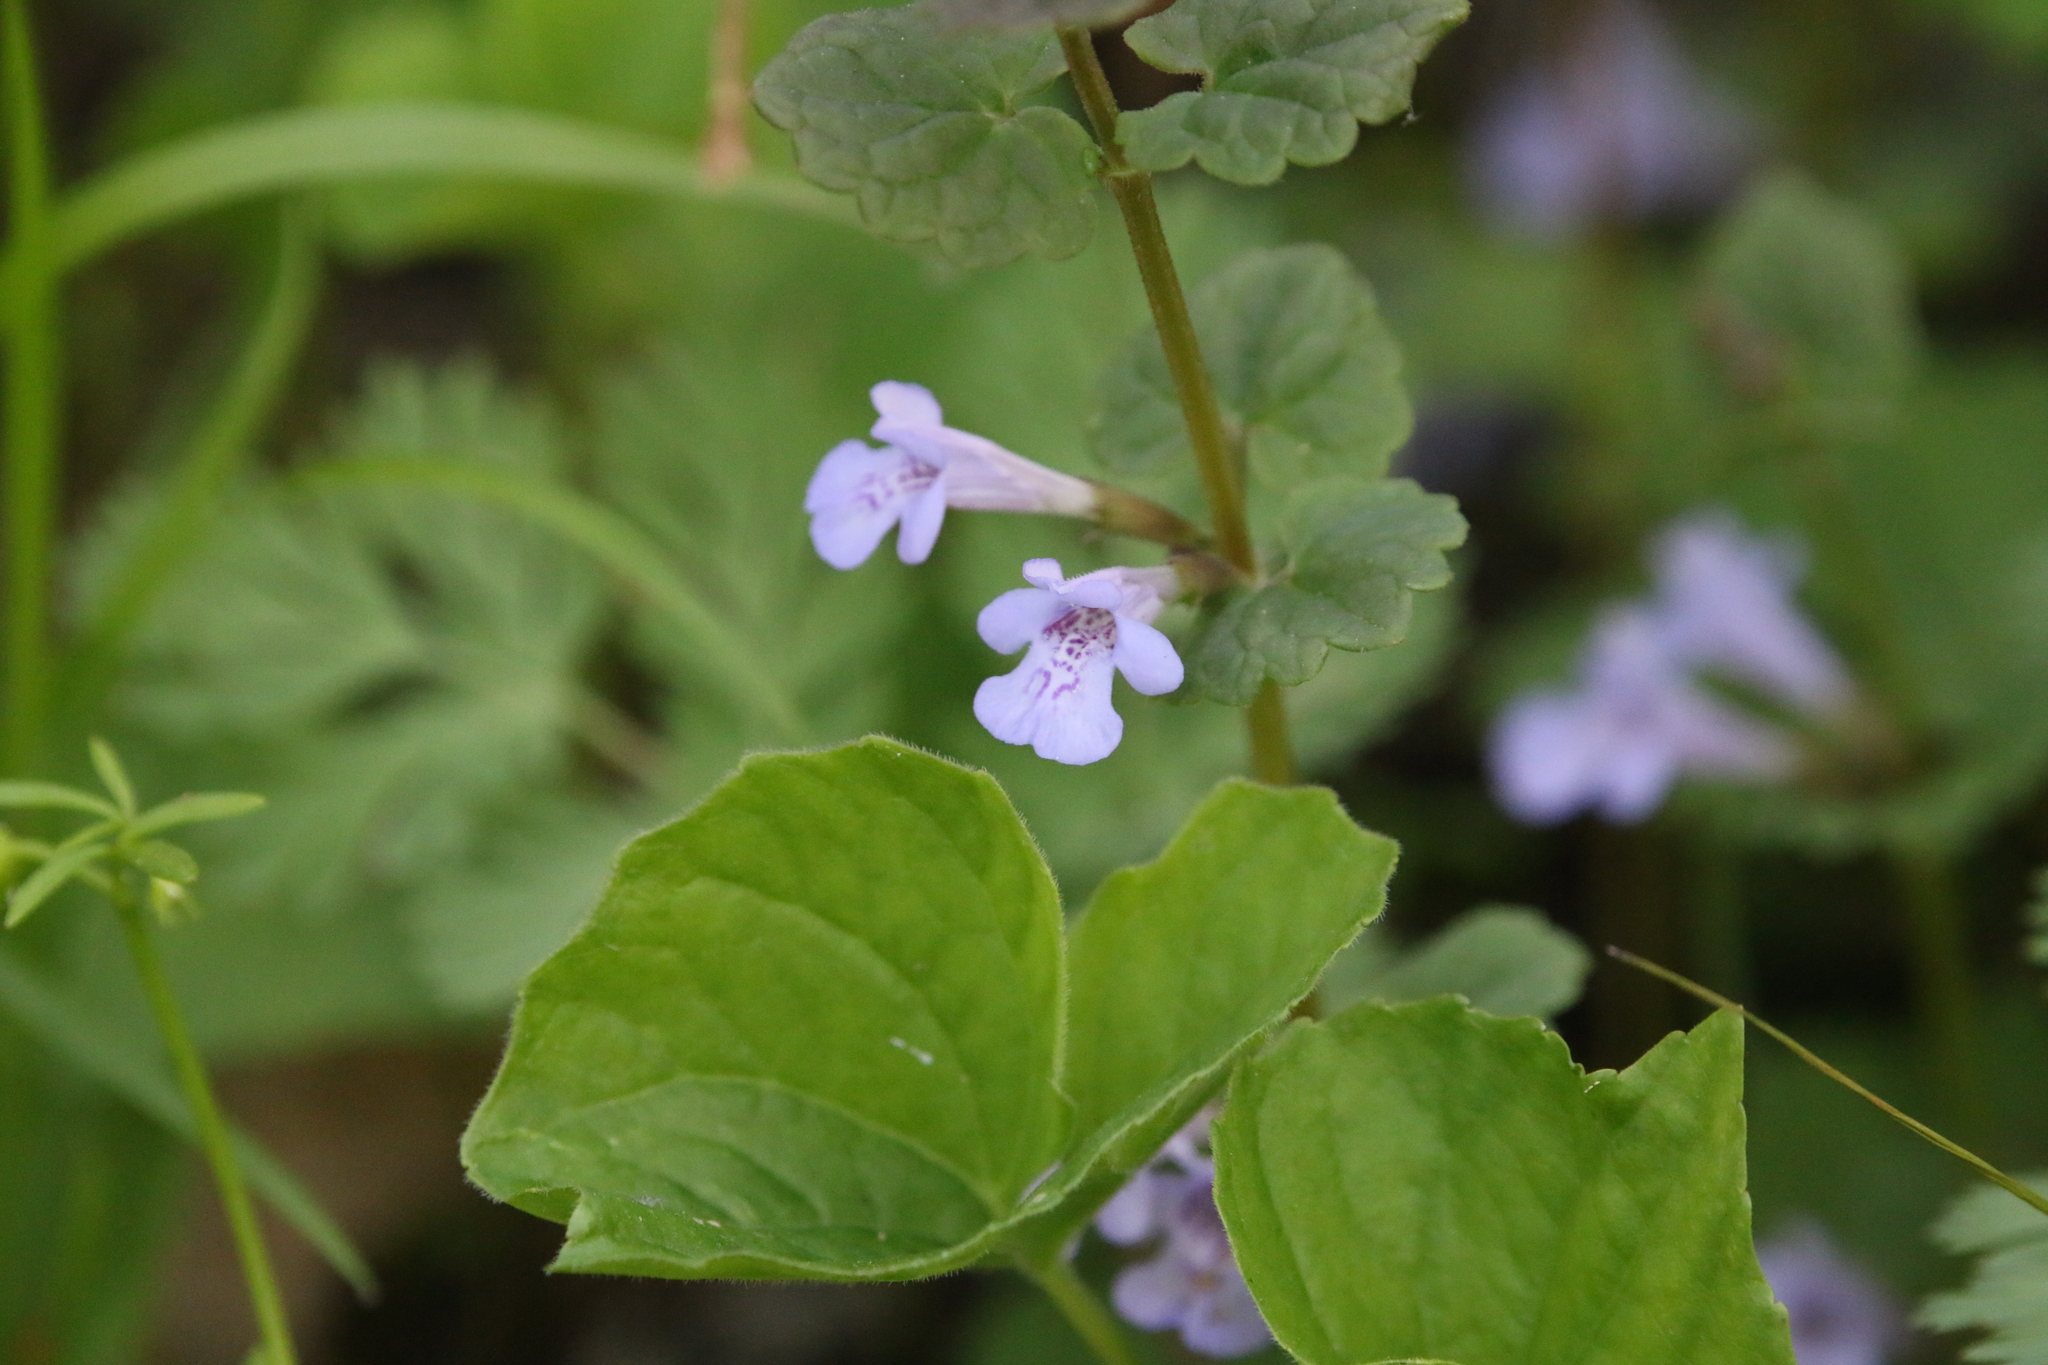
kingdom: Plantae
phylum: Tracheophyta
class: Magnoliopsida
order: Lamiales
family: Lamiaceae
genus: Glechoma
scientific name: Glechoma hederacea
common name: Ground ivy
